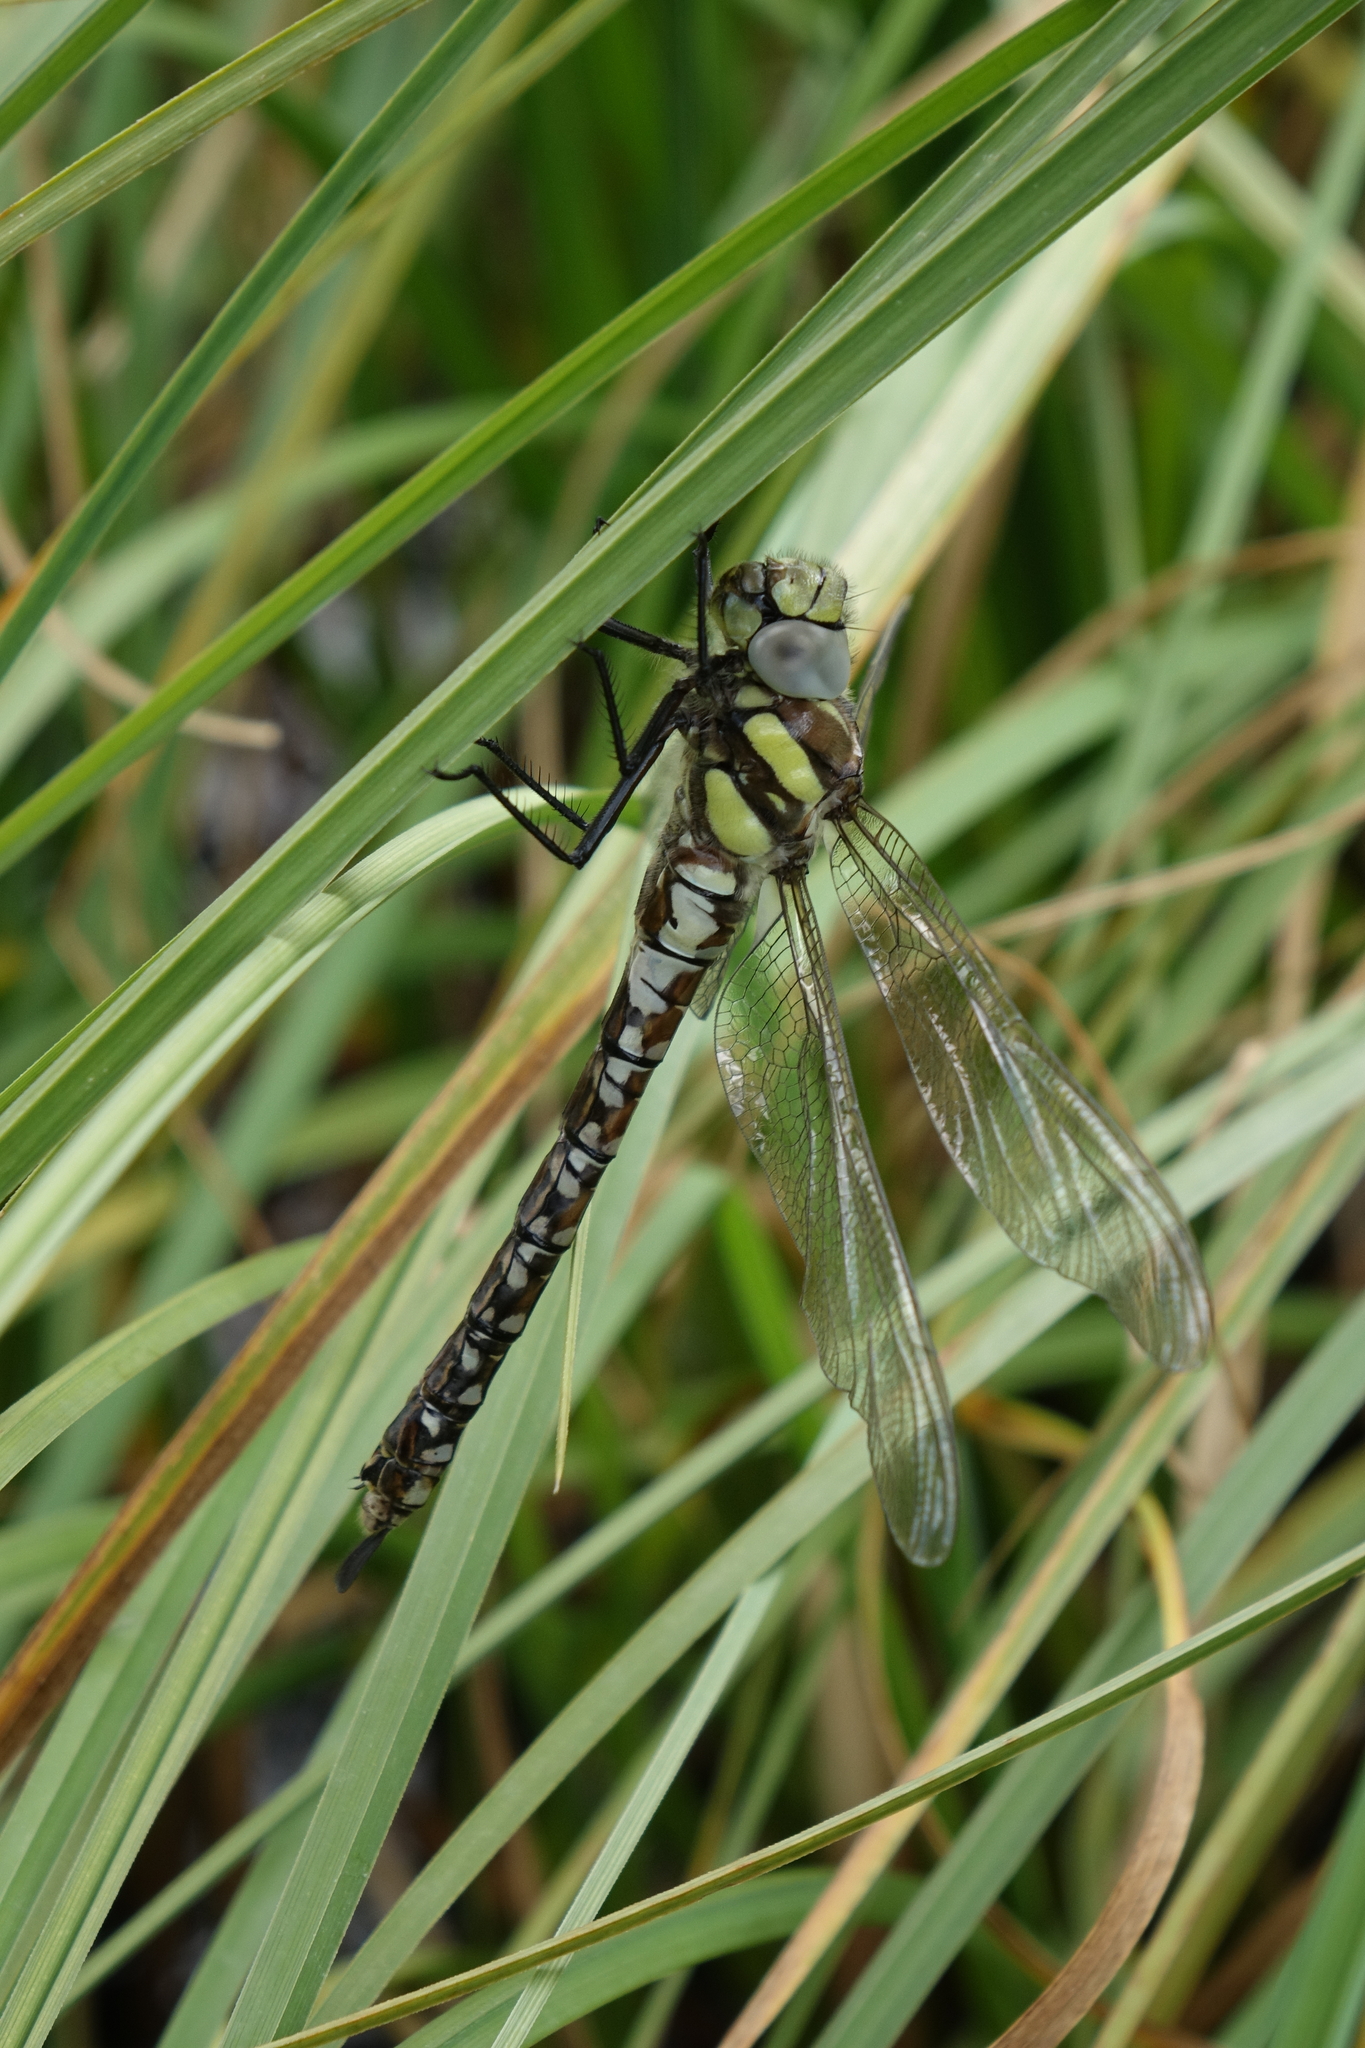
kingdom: Animalia
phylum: Arthropoda
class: Insecta
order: Odonata
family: Aeshnidae
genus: Aeshna
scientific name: Aeshna juncea
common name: Moorland hawker
